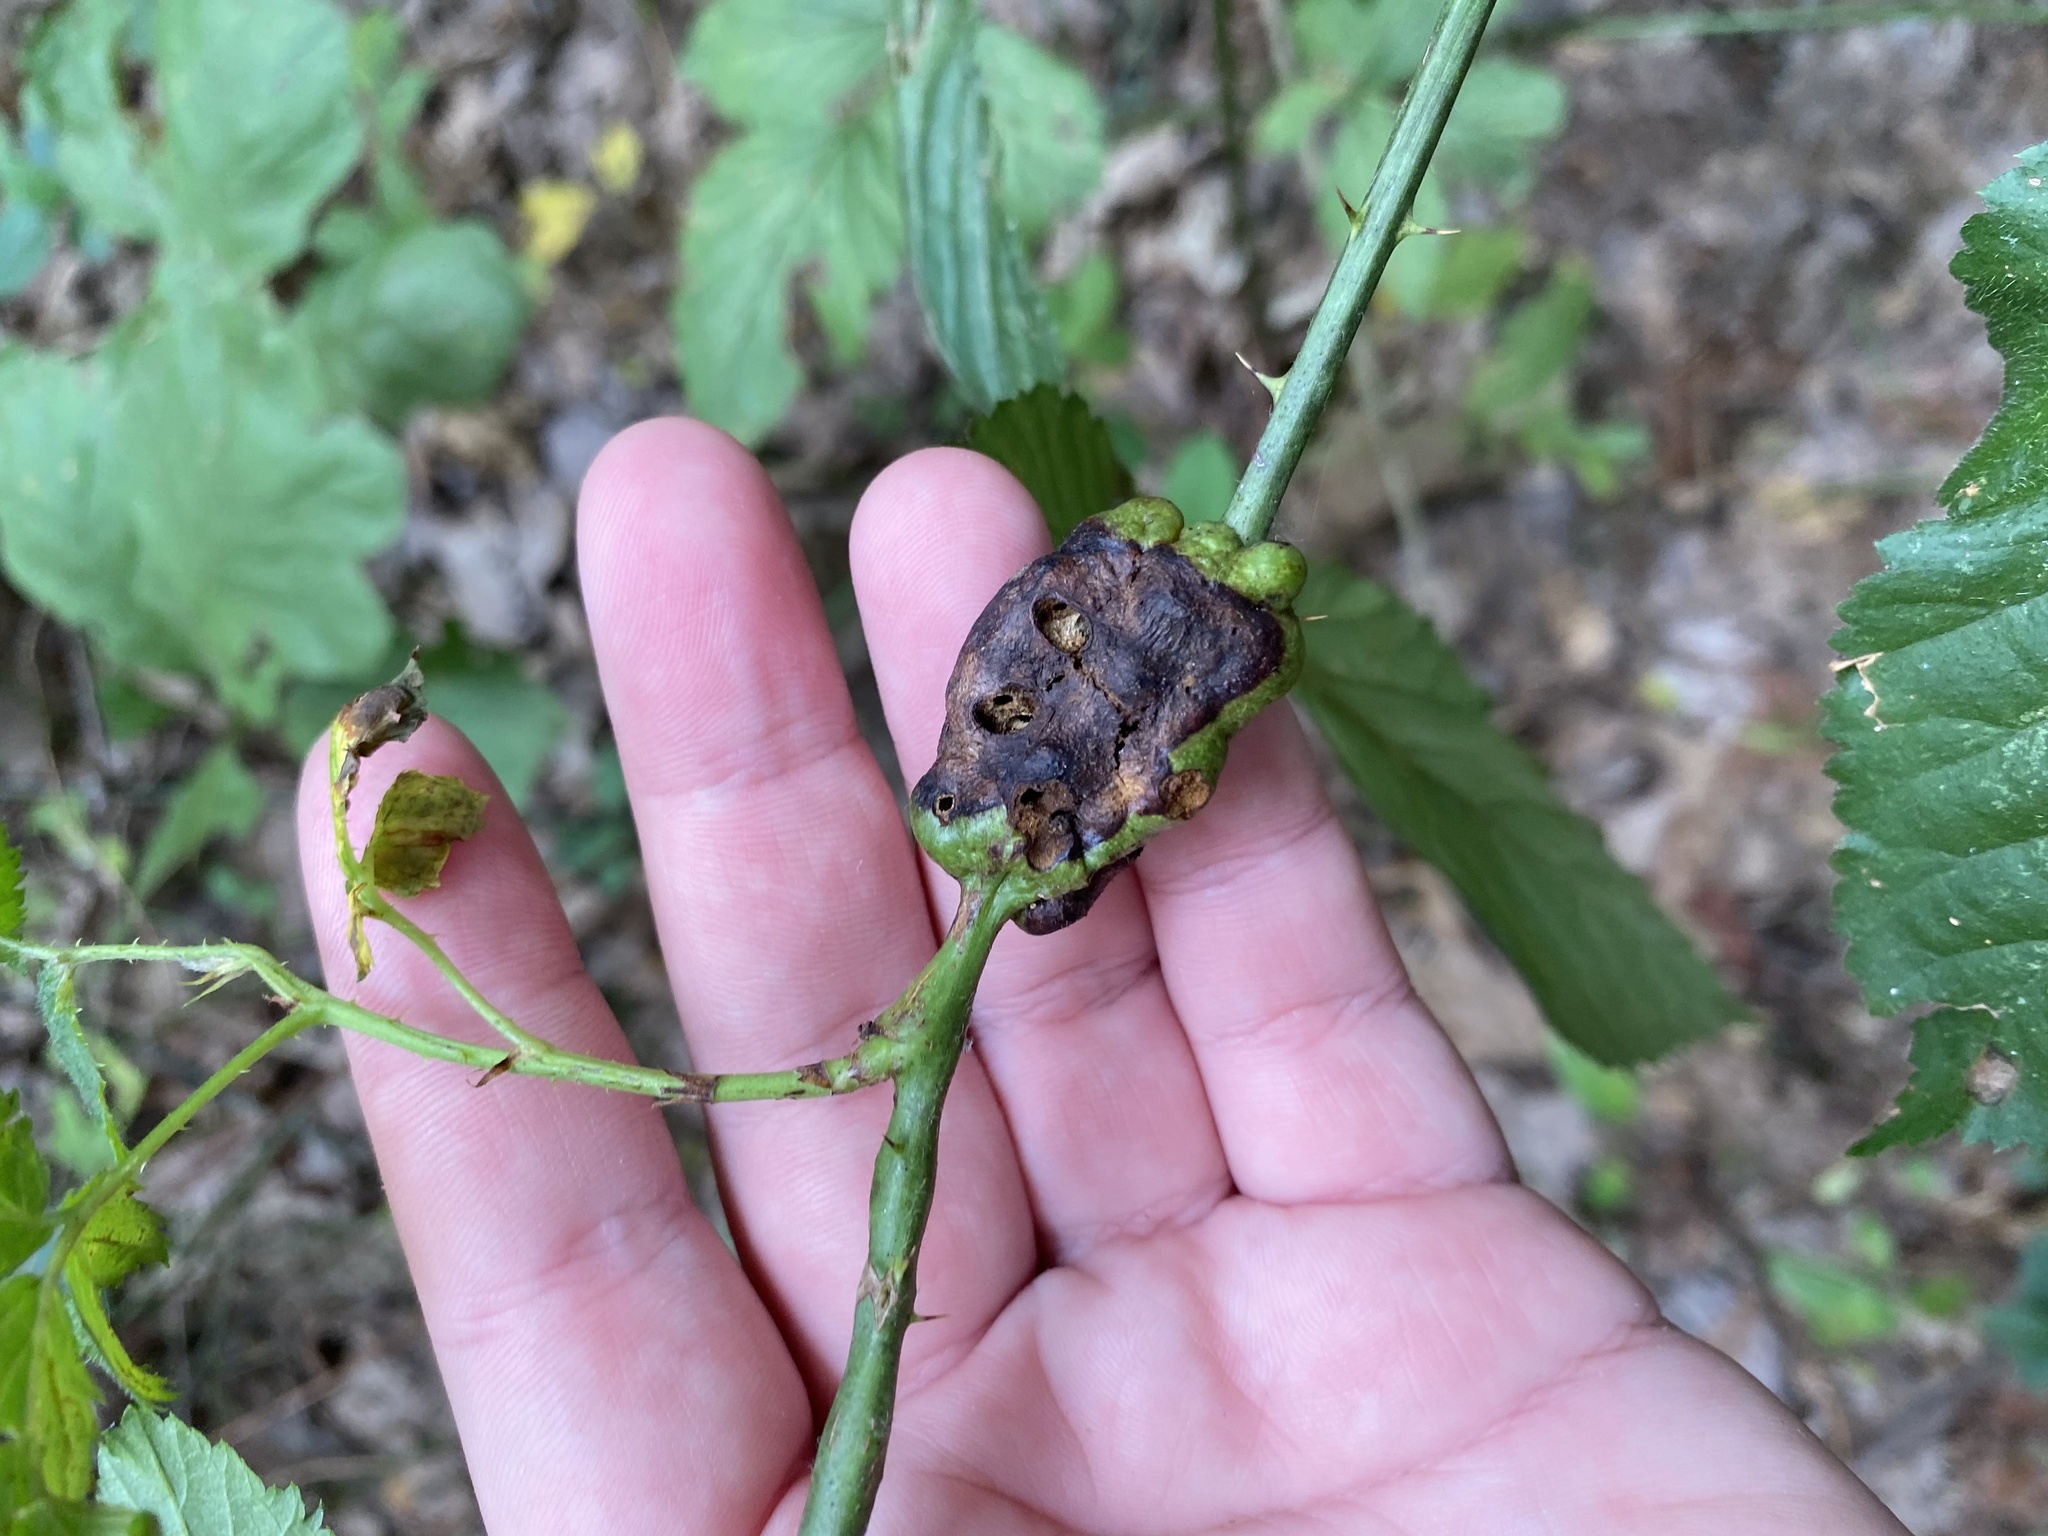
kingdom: Animalia
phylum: Arthropoda
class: Insecta
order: Hymenoptera
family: Cynipidae
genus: Diastrophus
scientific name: Diastrophus
